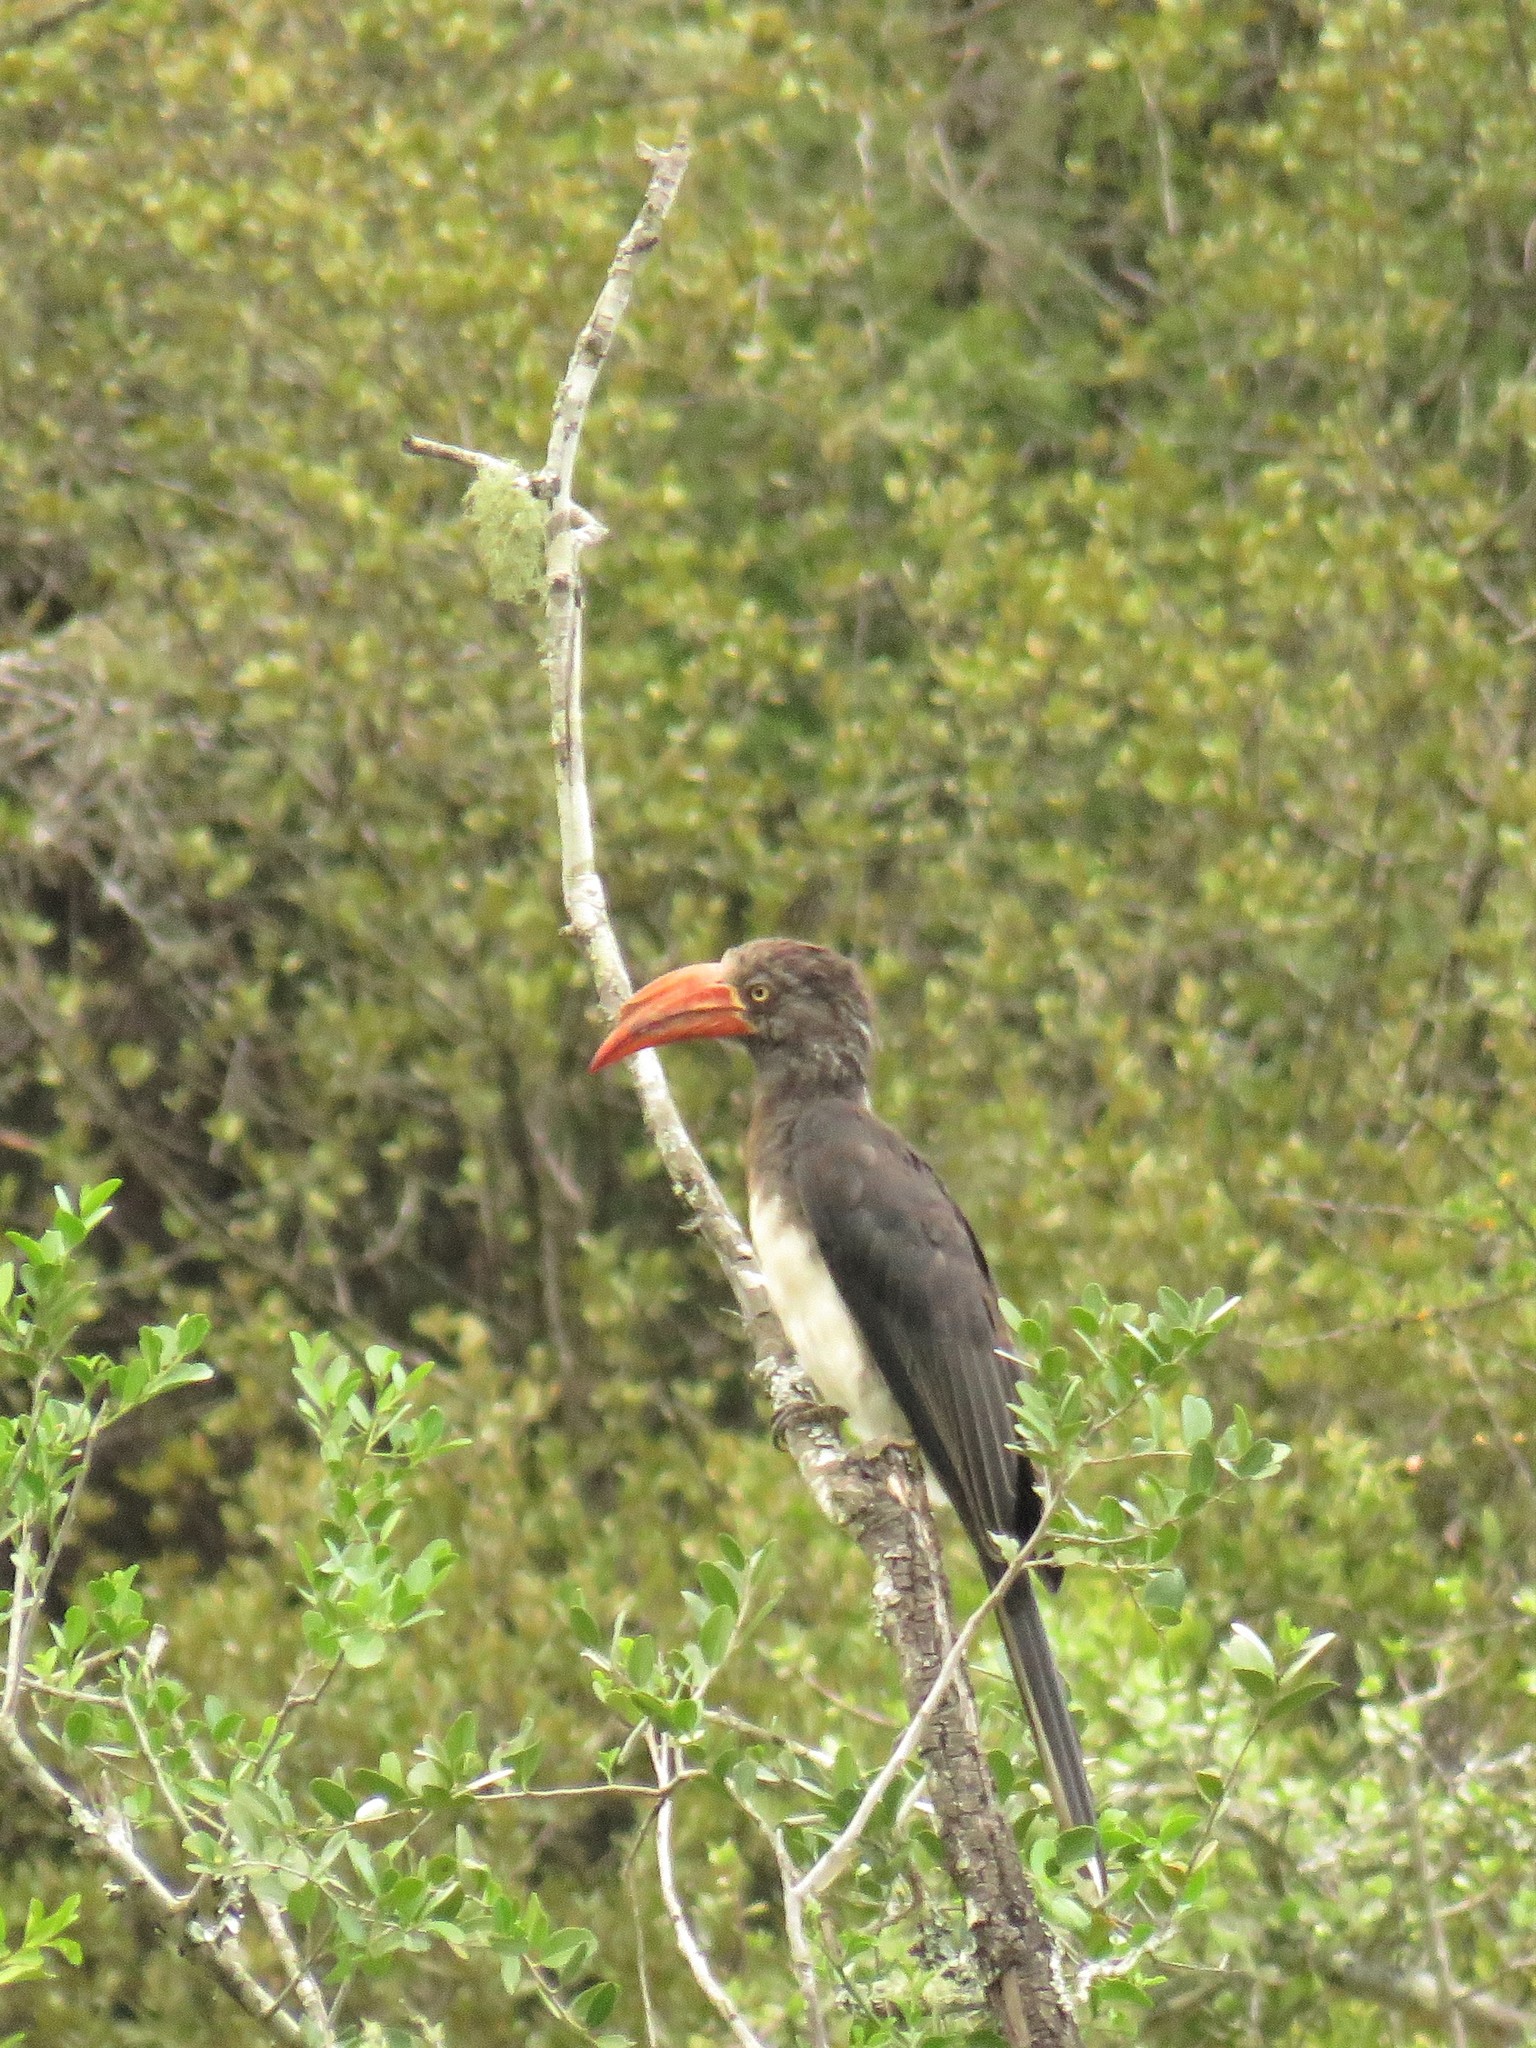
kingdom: Animalia
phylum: Chordata
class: Aves
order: Bucerotiformes
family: Bucerotidae
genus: Lophoceros
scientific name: Lophoceros alboterminatus
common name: Crowned hornbill
